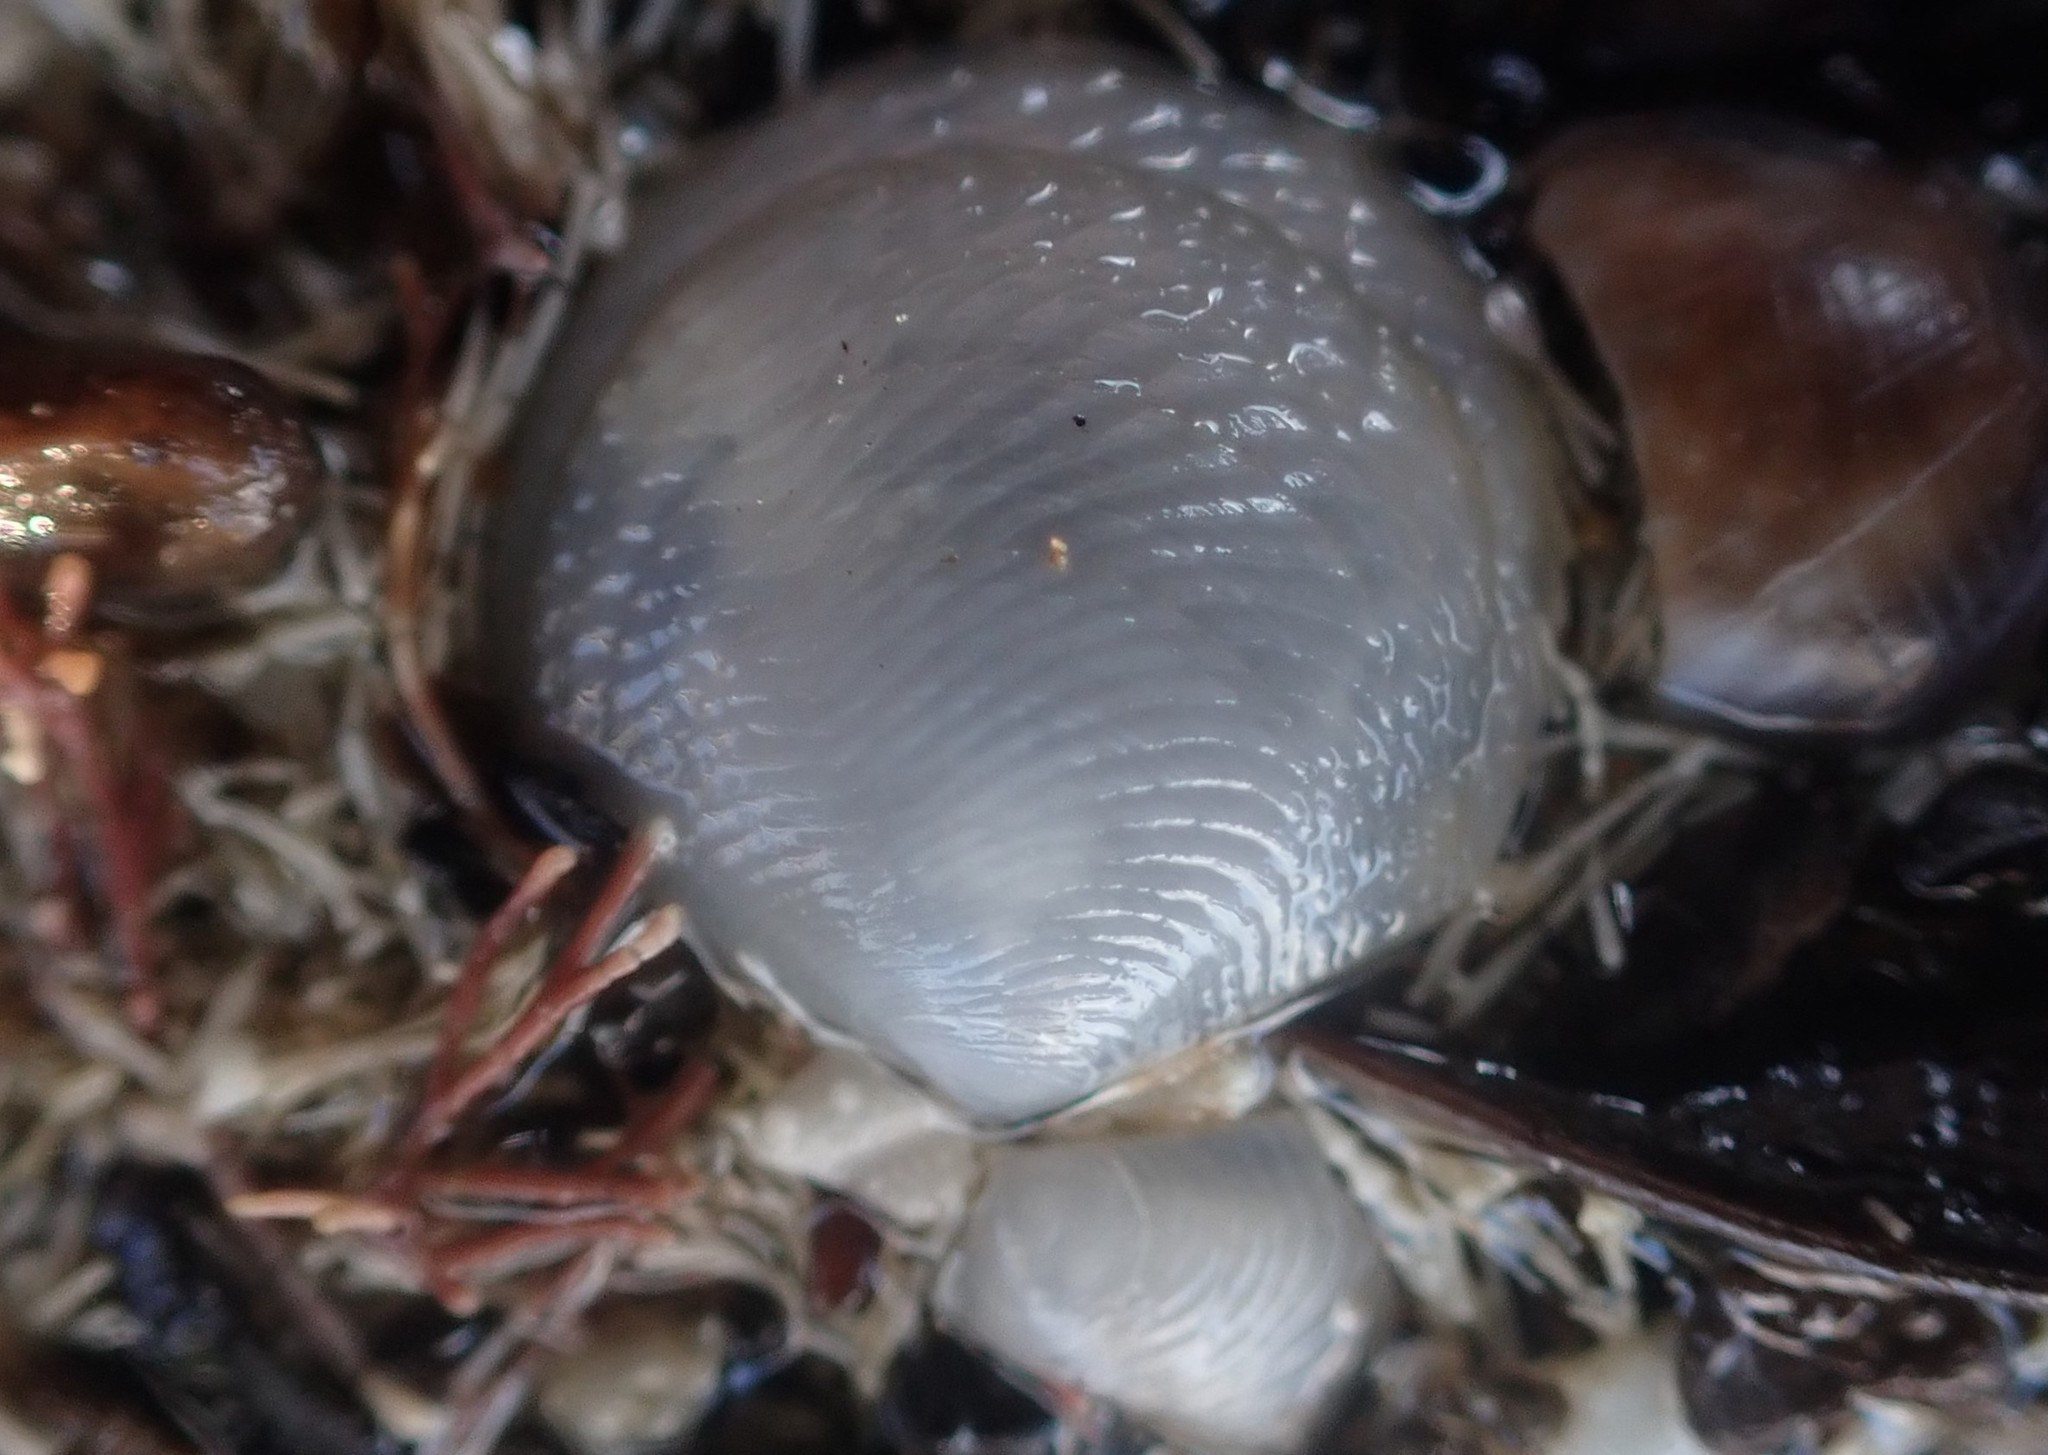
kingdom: Animalia
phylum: Mollusca
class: Bivalvia
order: Lucinida
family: Lucinidae
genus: Divalucina
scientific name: Divalucina cumingi
